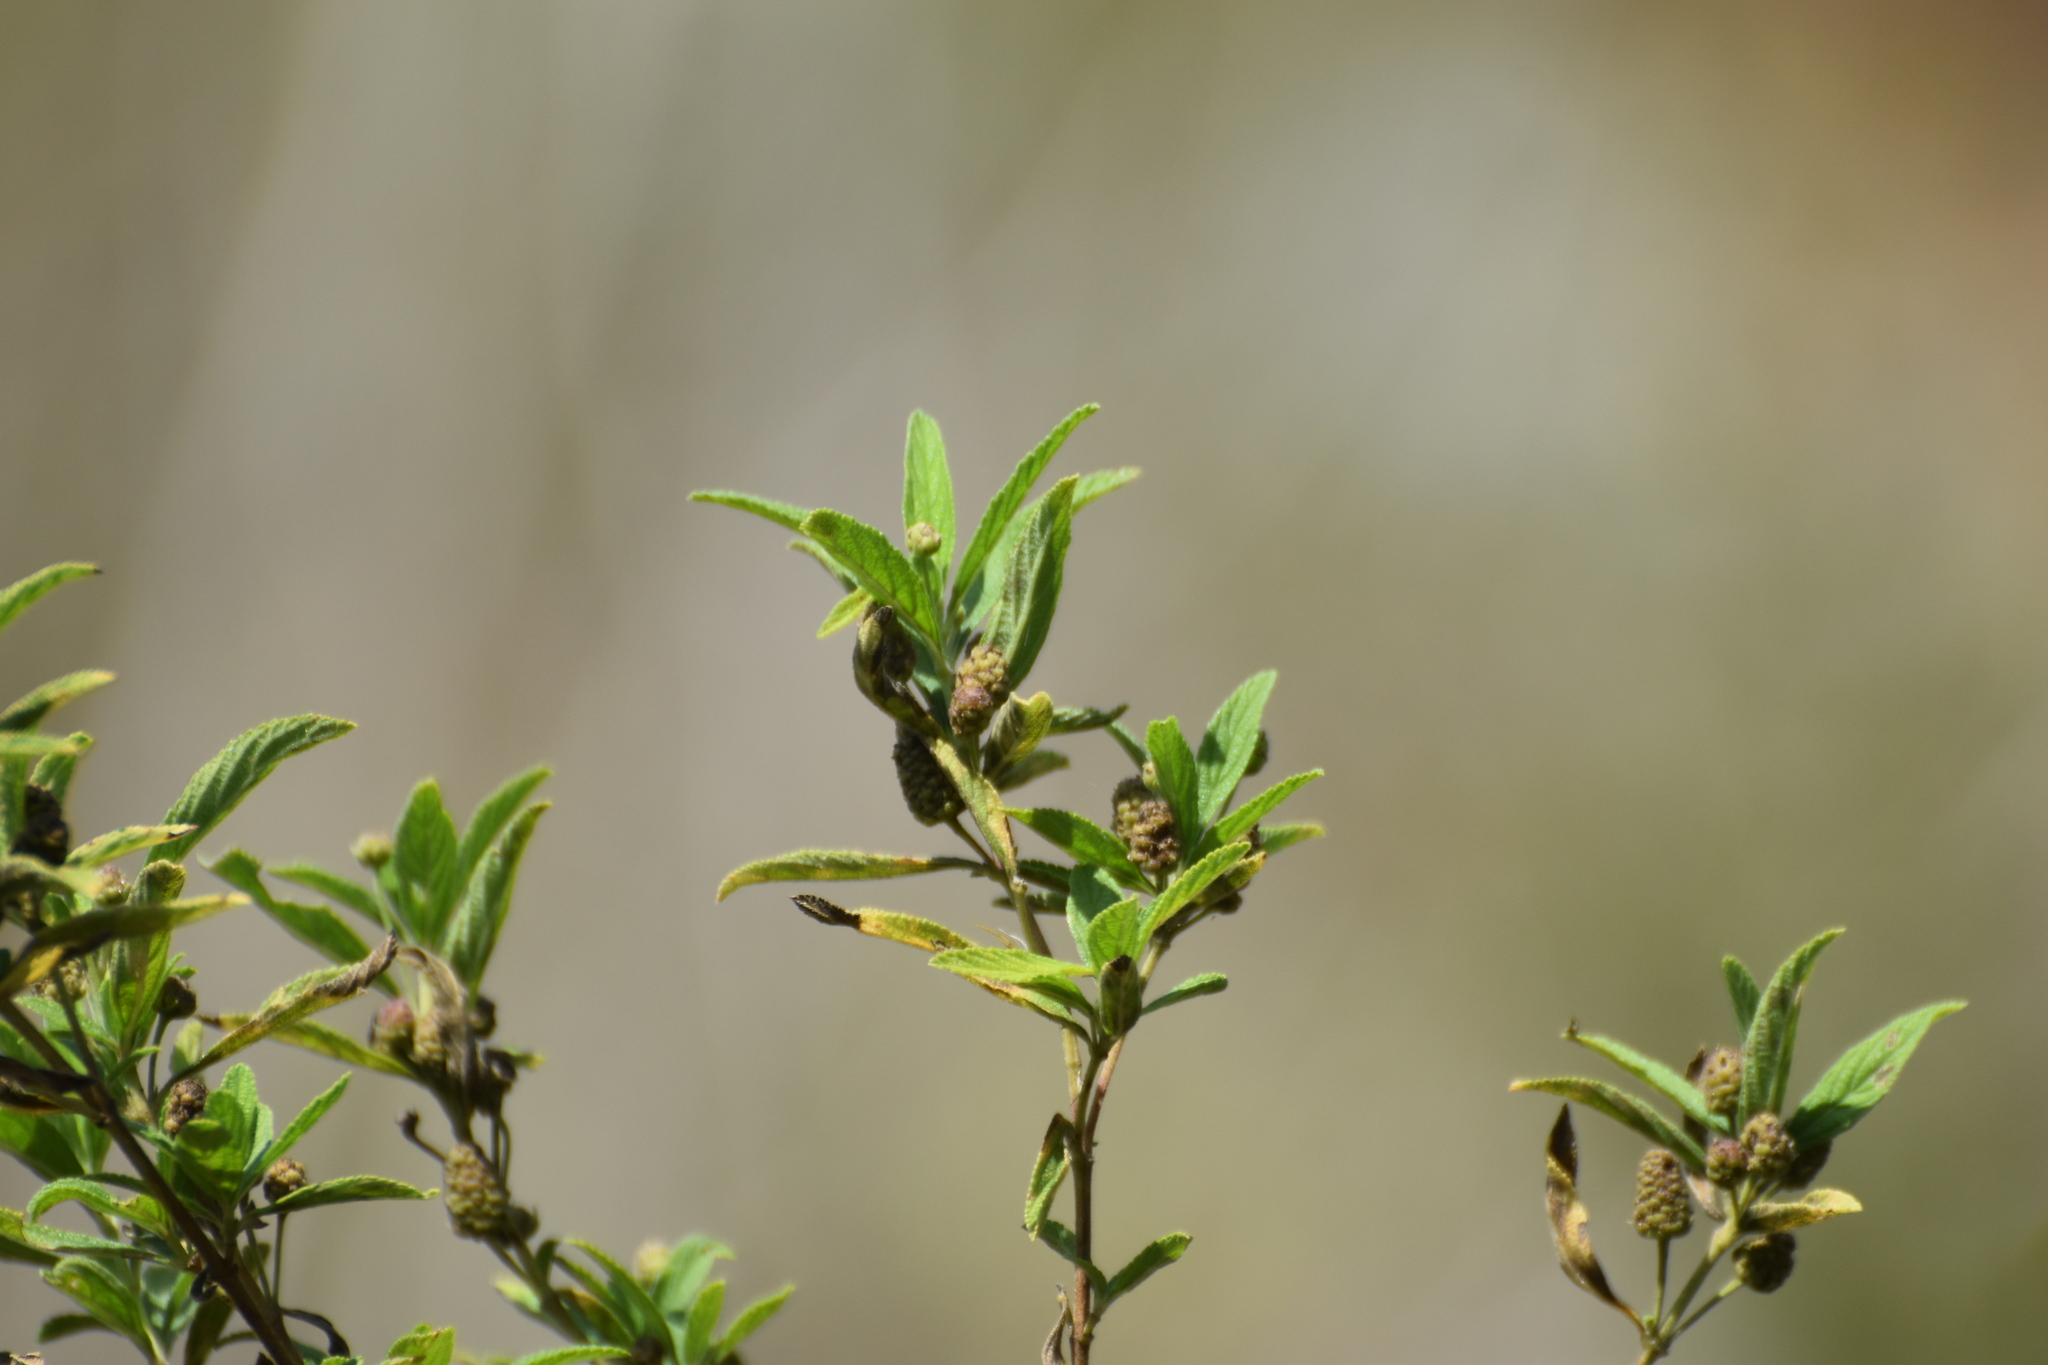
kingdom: Plantae
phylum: Tracheophyta
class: Magnoliopsida
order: Lamiales
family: Verbenaceae
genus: Lippia
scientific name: Lippia javanica
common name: Lemonbush
